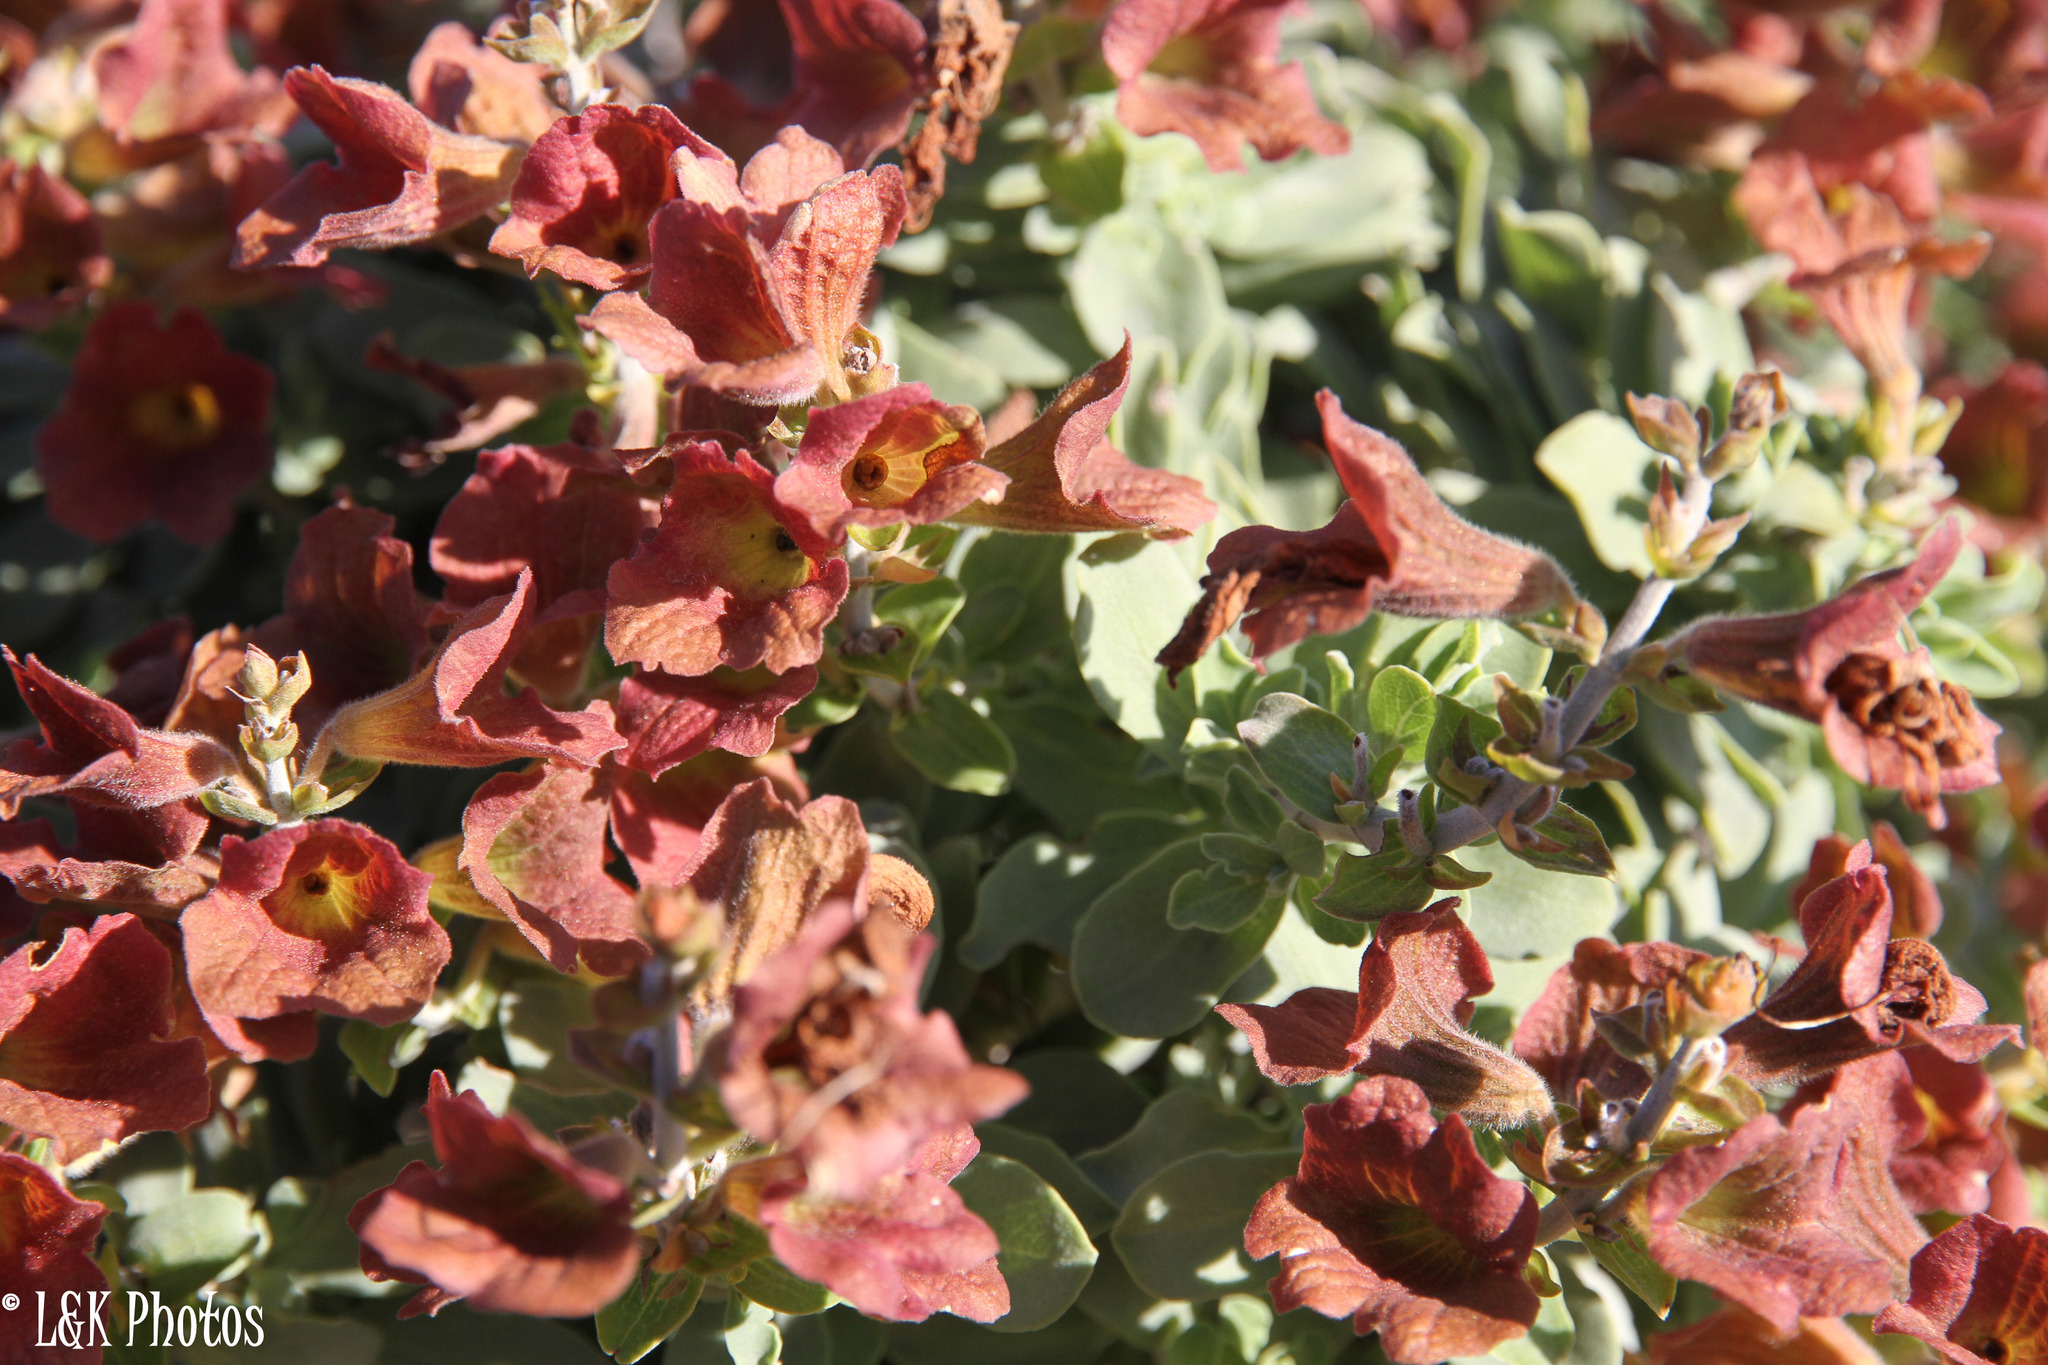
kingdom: Plantae
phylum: Tracheophyta
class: Magnoliopsida
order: Lamiales
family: Lamiaceae
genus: Salvia
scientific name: Salvia aurea
